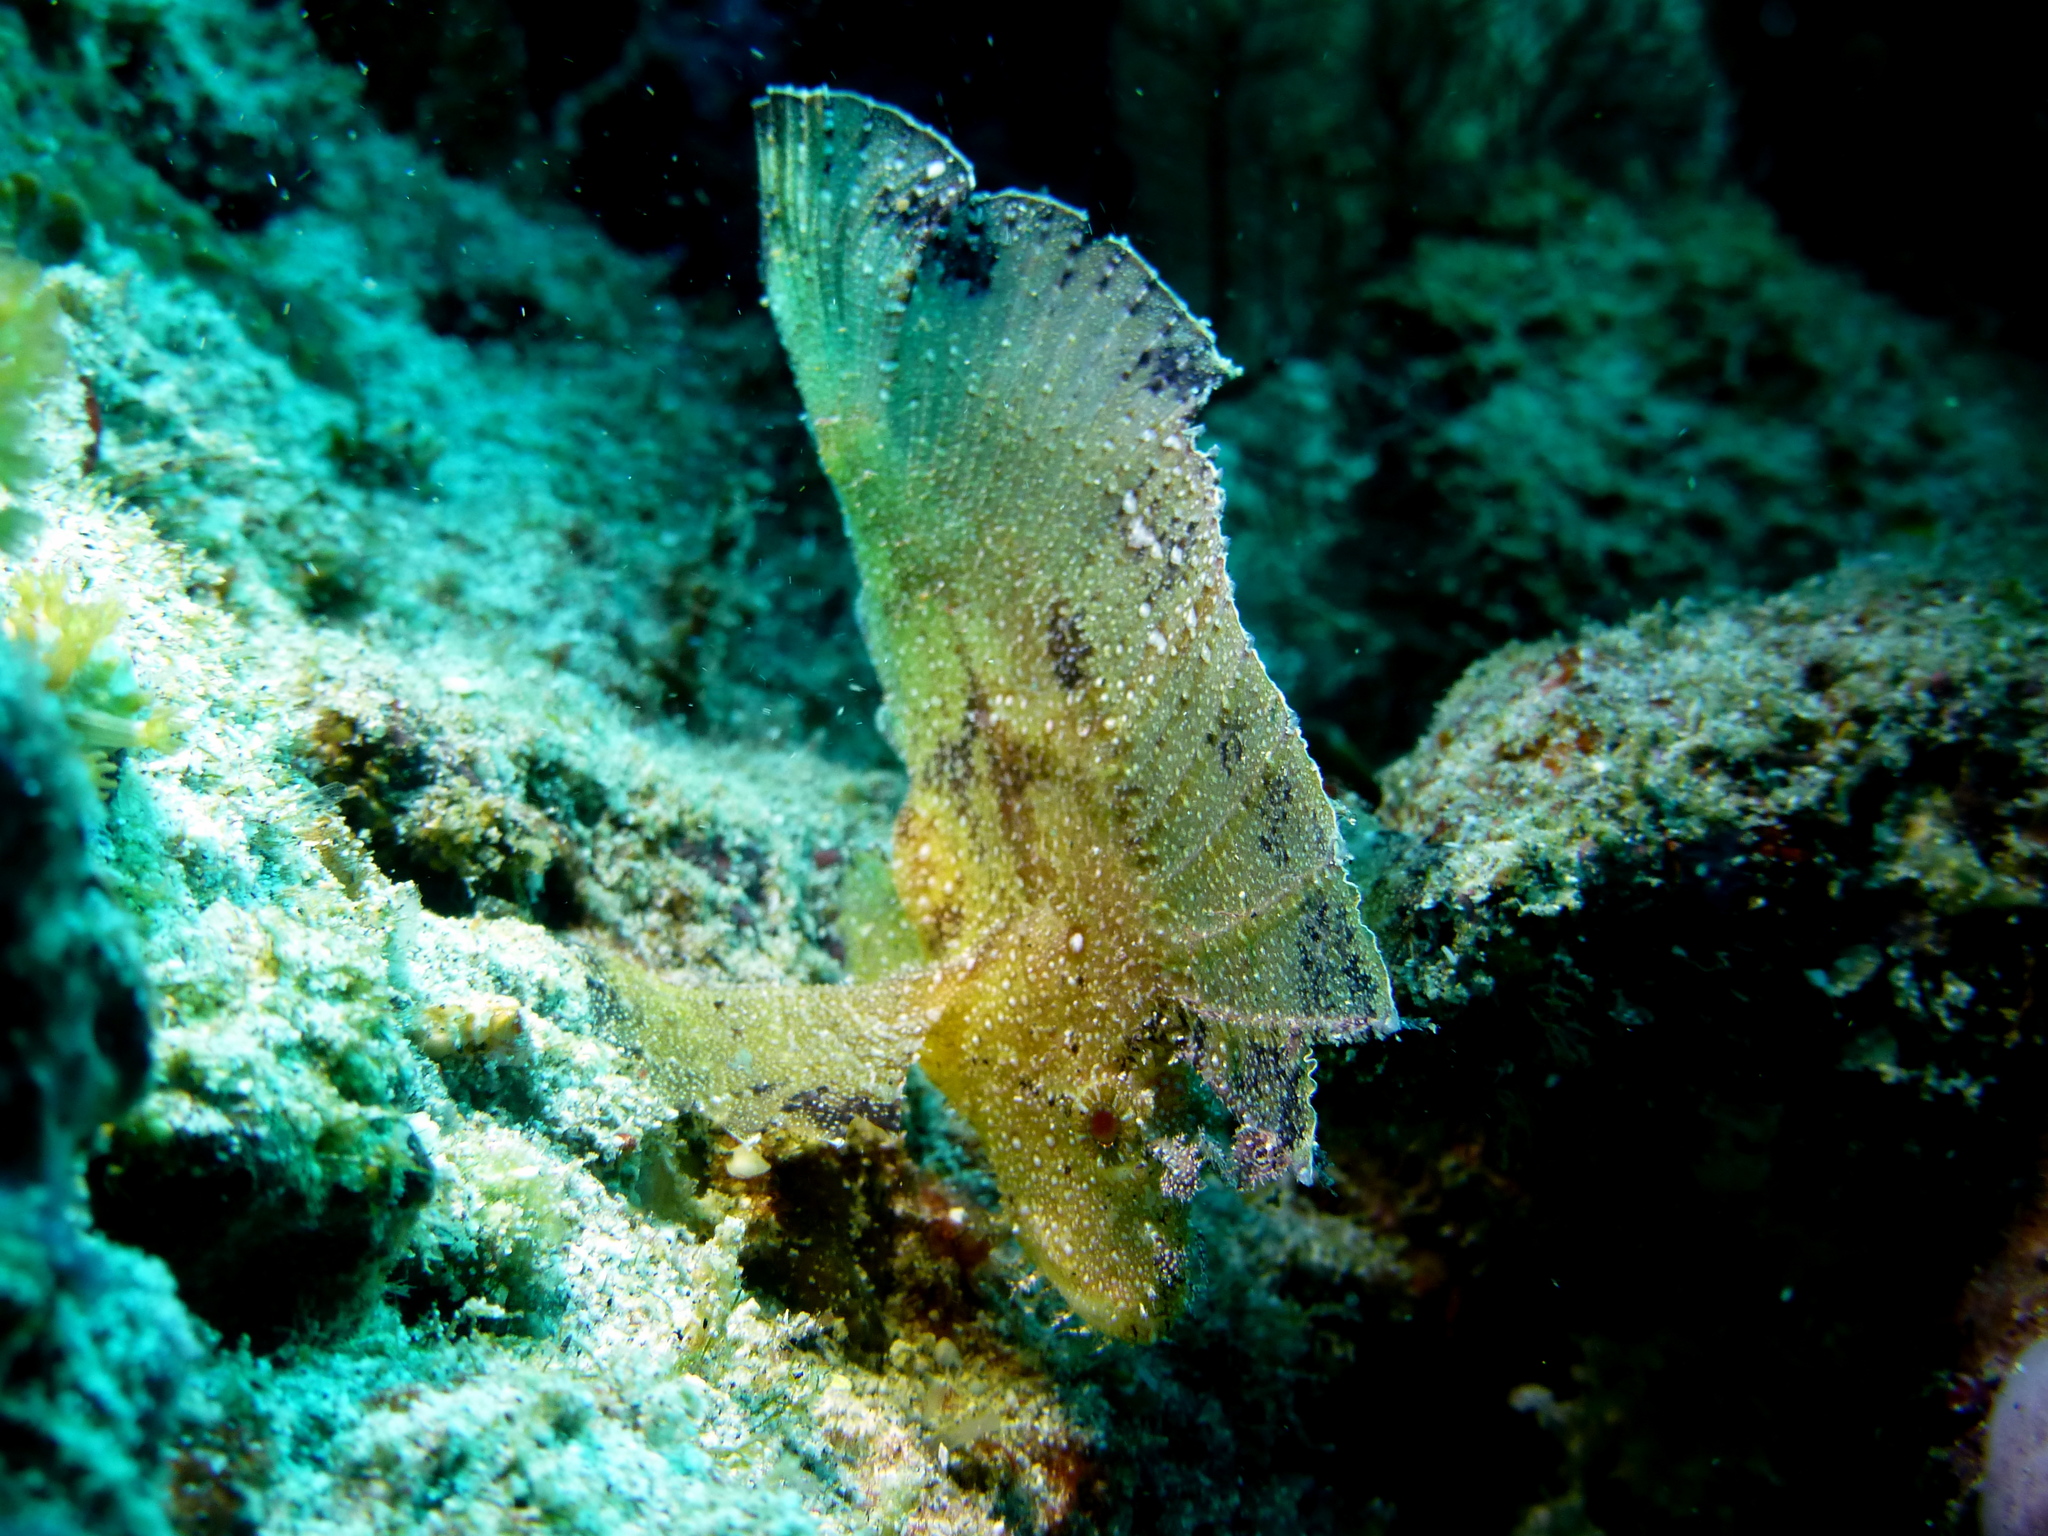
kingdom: Animalia
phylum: Chordata
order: Scorpaeniformes
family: Scorpaenidae
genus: Taenianotus
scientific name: Taenianotus triacanthus
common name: Leaf scorpionfish
